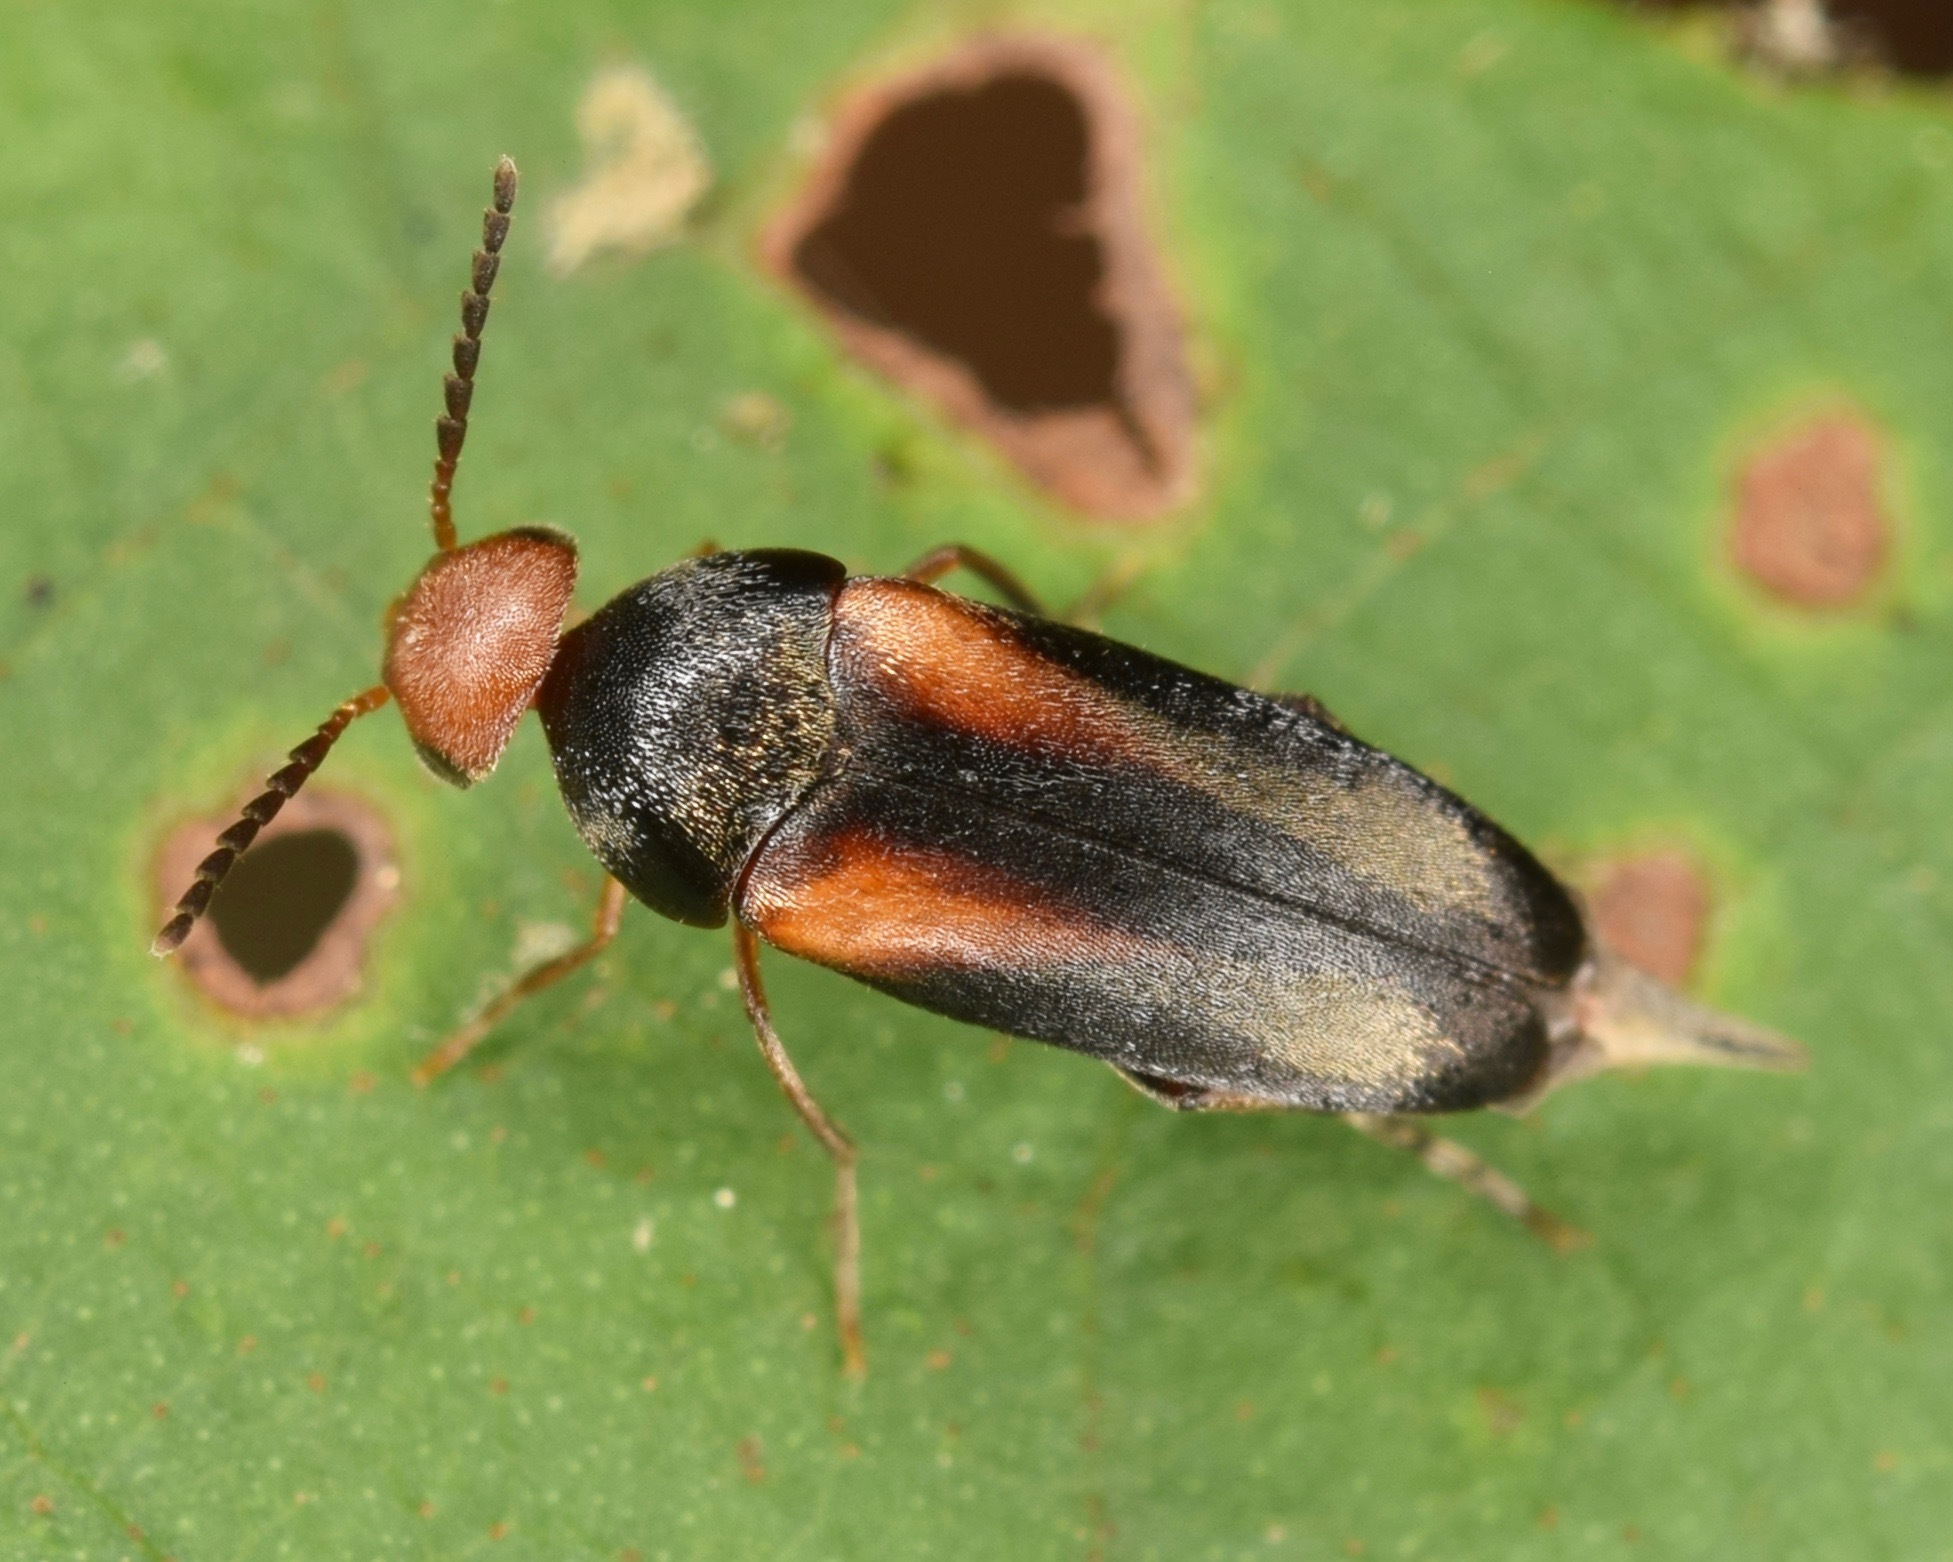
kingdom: Animalia
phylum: Arthropoda
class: Insecta
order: Coleoptera
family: Mordellidae
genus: Mordellistena
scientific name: Mordellistena attenuata
